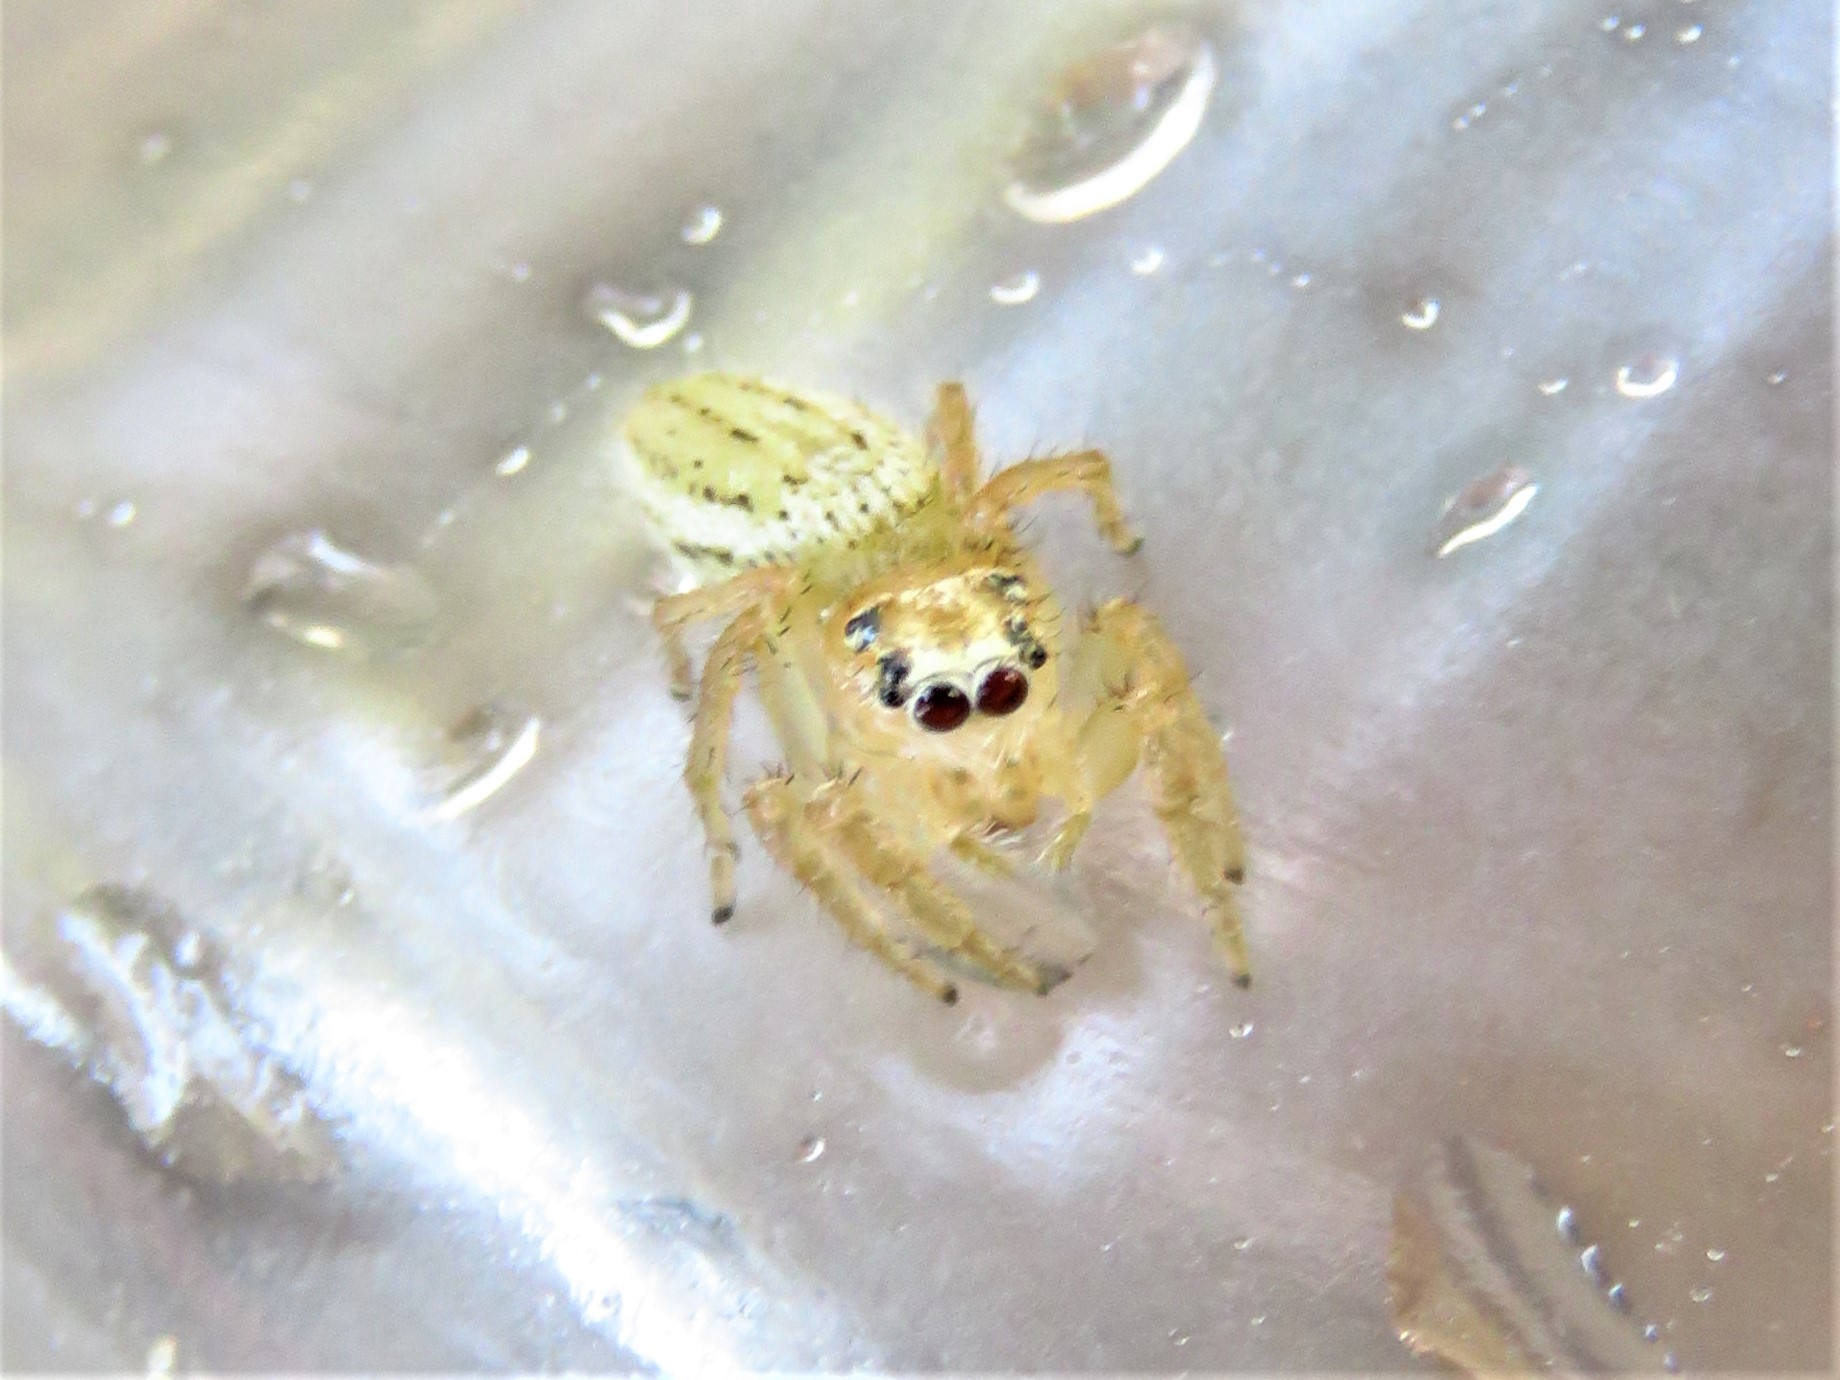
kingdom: Animalia
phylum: Arthropoda
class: Arachnida
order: Araneae
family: Salticidae
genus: Colonus
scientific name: Colonus puerperus
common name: Jumping spiders
